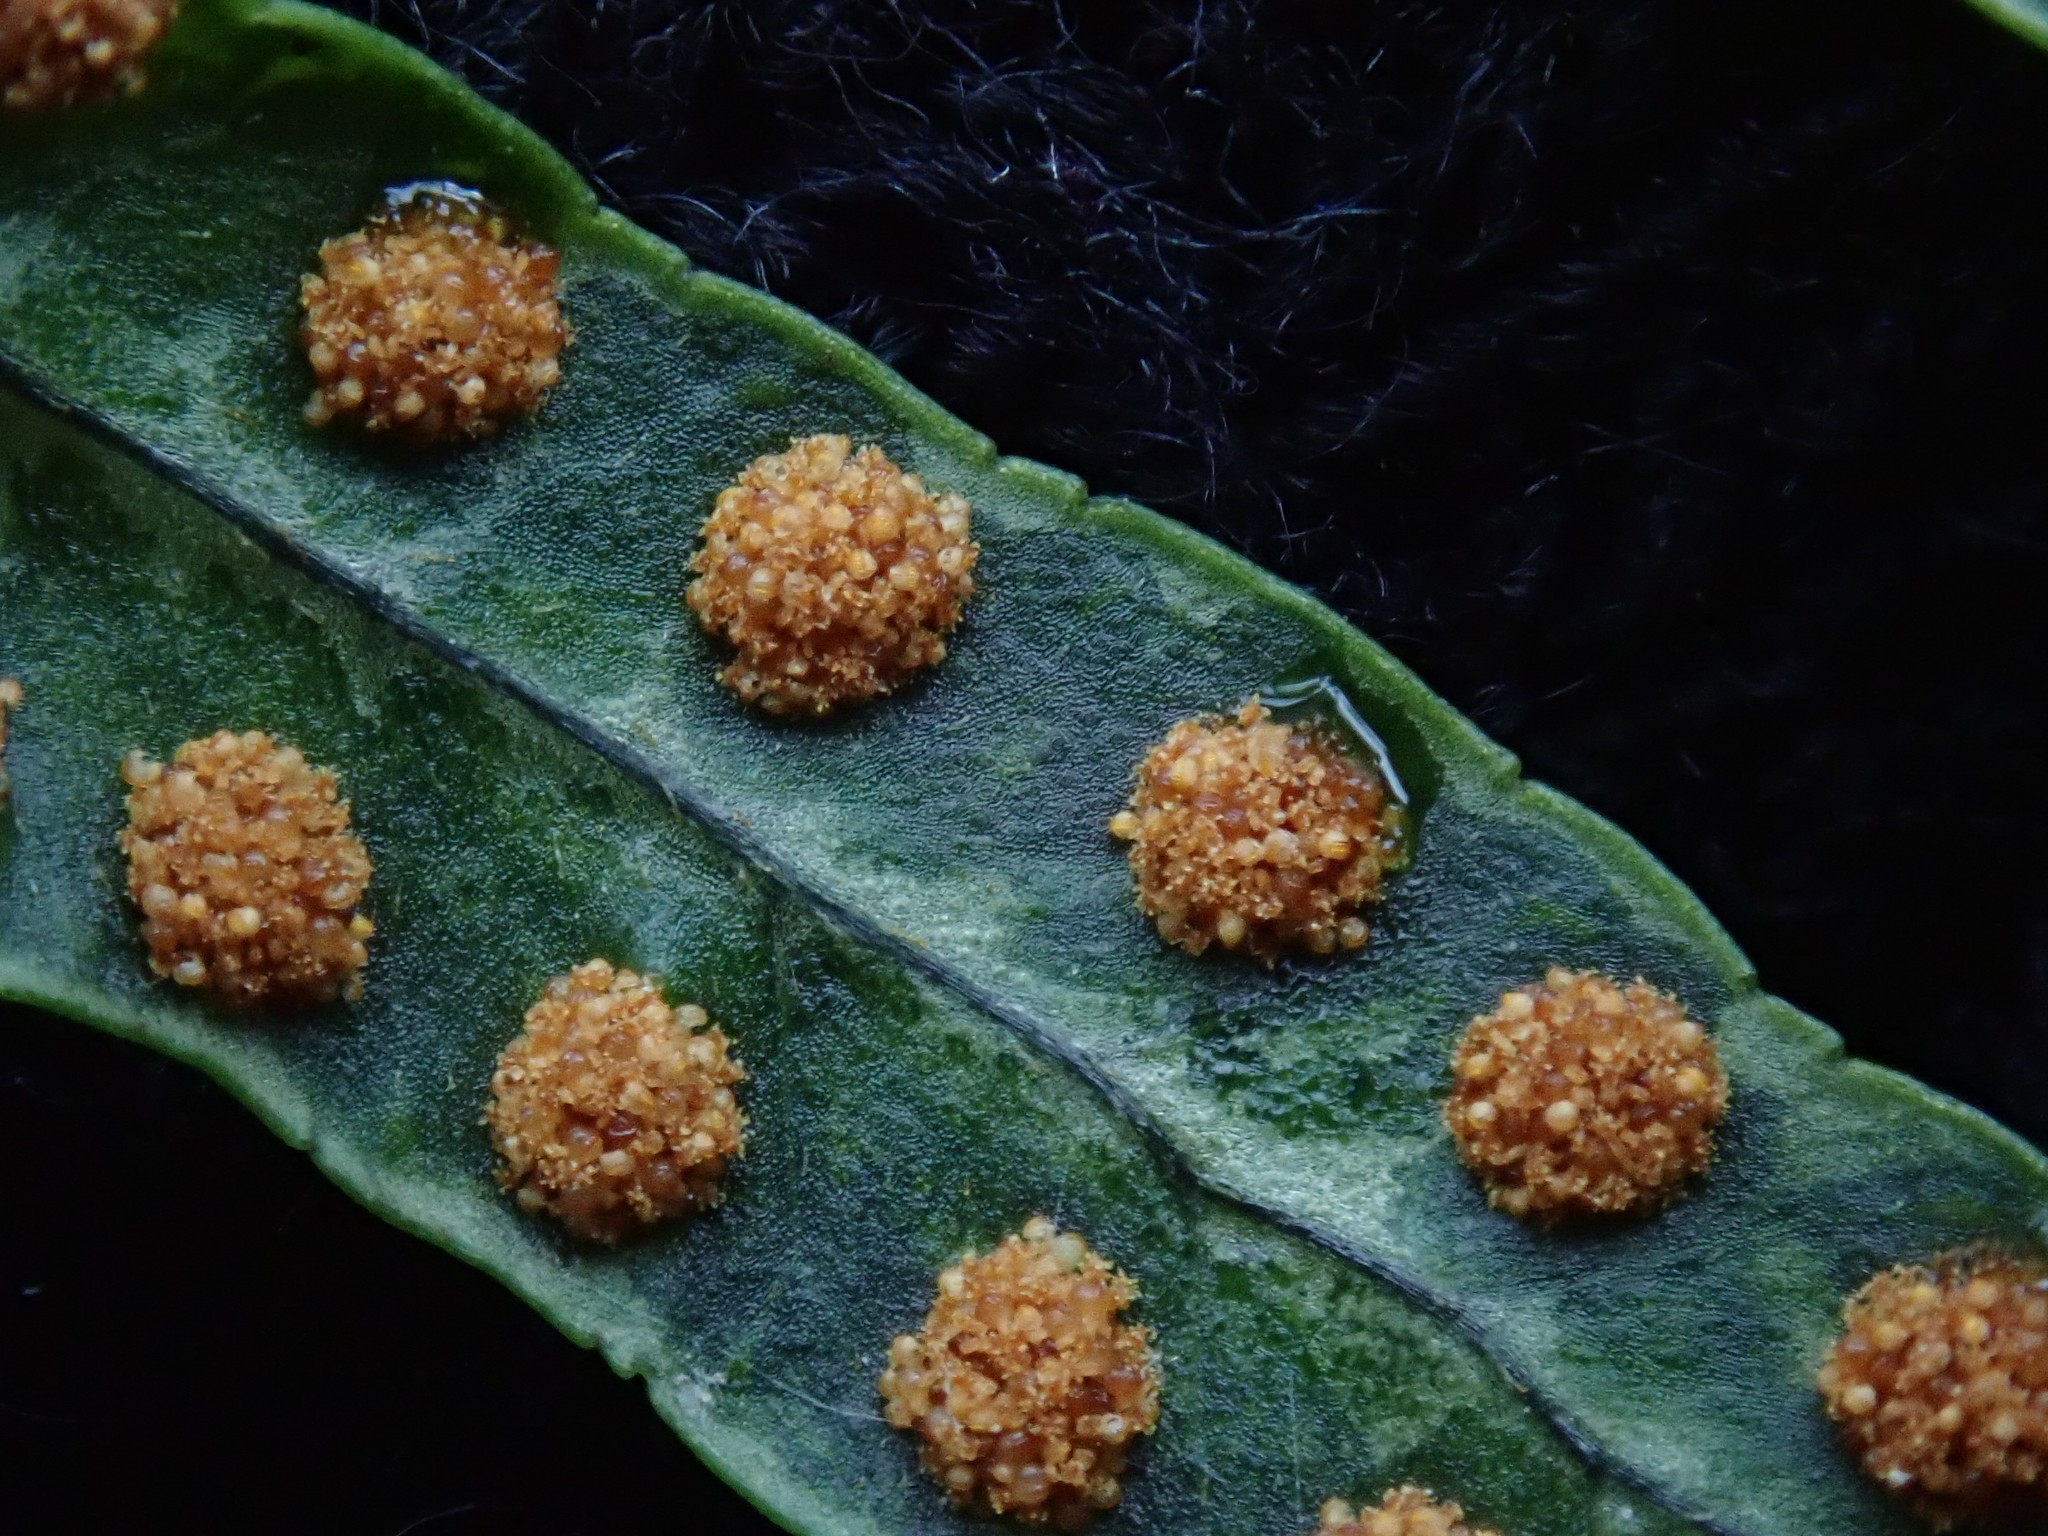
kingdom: Plantae
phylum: Tracheophyta
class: Polypodiopsida
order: Polypodiales
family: Polypodiaceae
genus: Polypodium
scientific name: Polypodium
